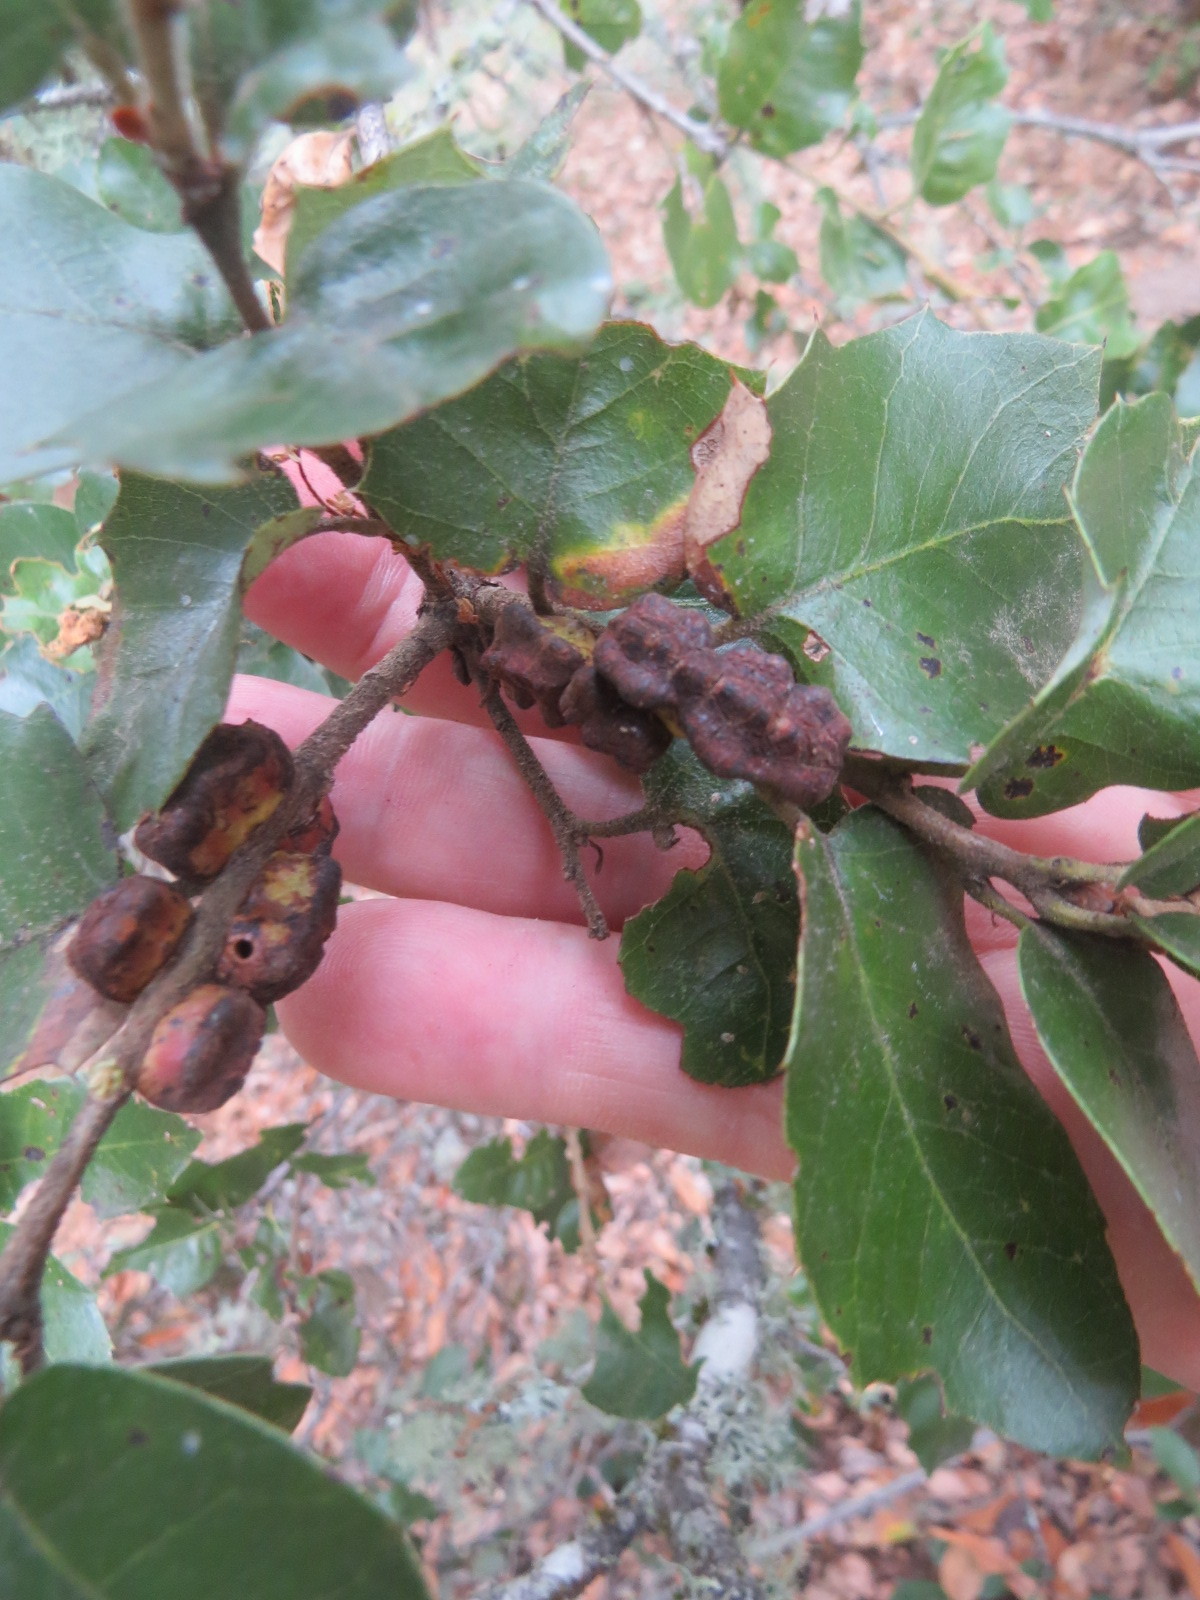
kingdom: Animalia
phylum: Arthropoda
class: Insecta
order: Hymenoptera
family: Cynipidae
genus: Disholandricus
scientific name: Disholandricus
